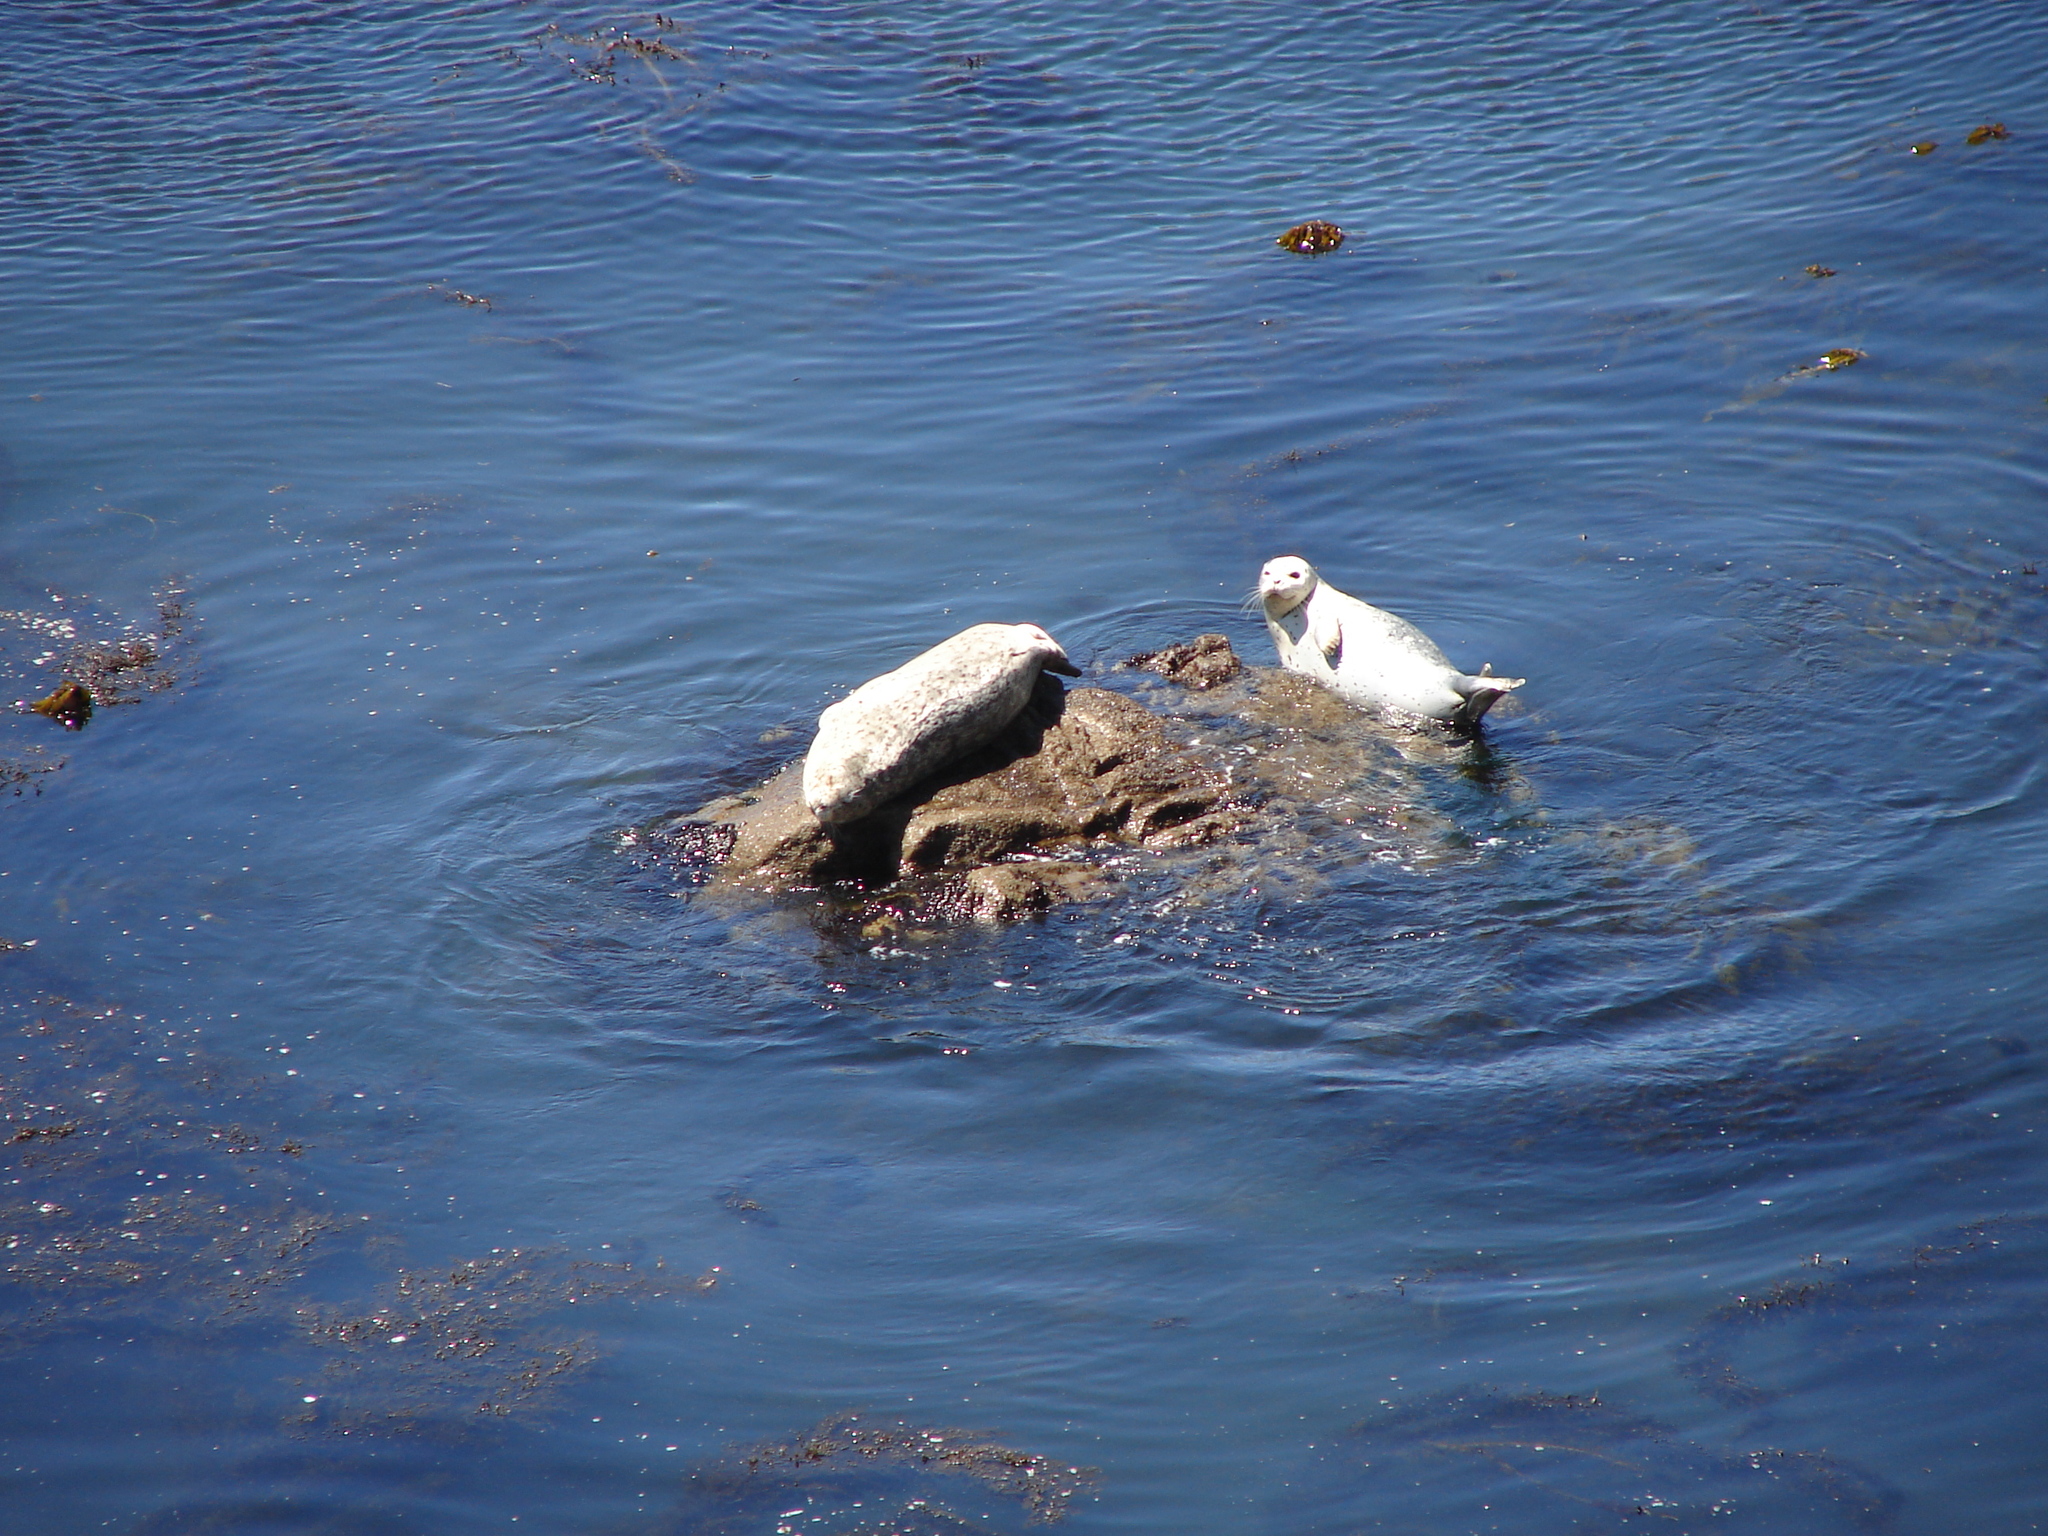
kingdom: Animalia
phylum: Chordata
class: Mammalia
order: Carnivora
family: Phocidae
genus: Phoca
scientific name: Phoca vitulina
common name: Harbor seal
